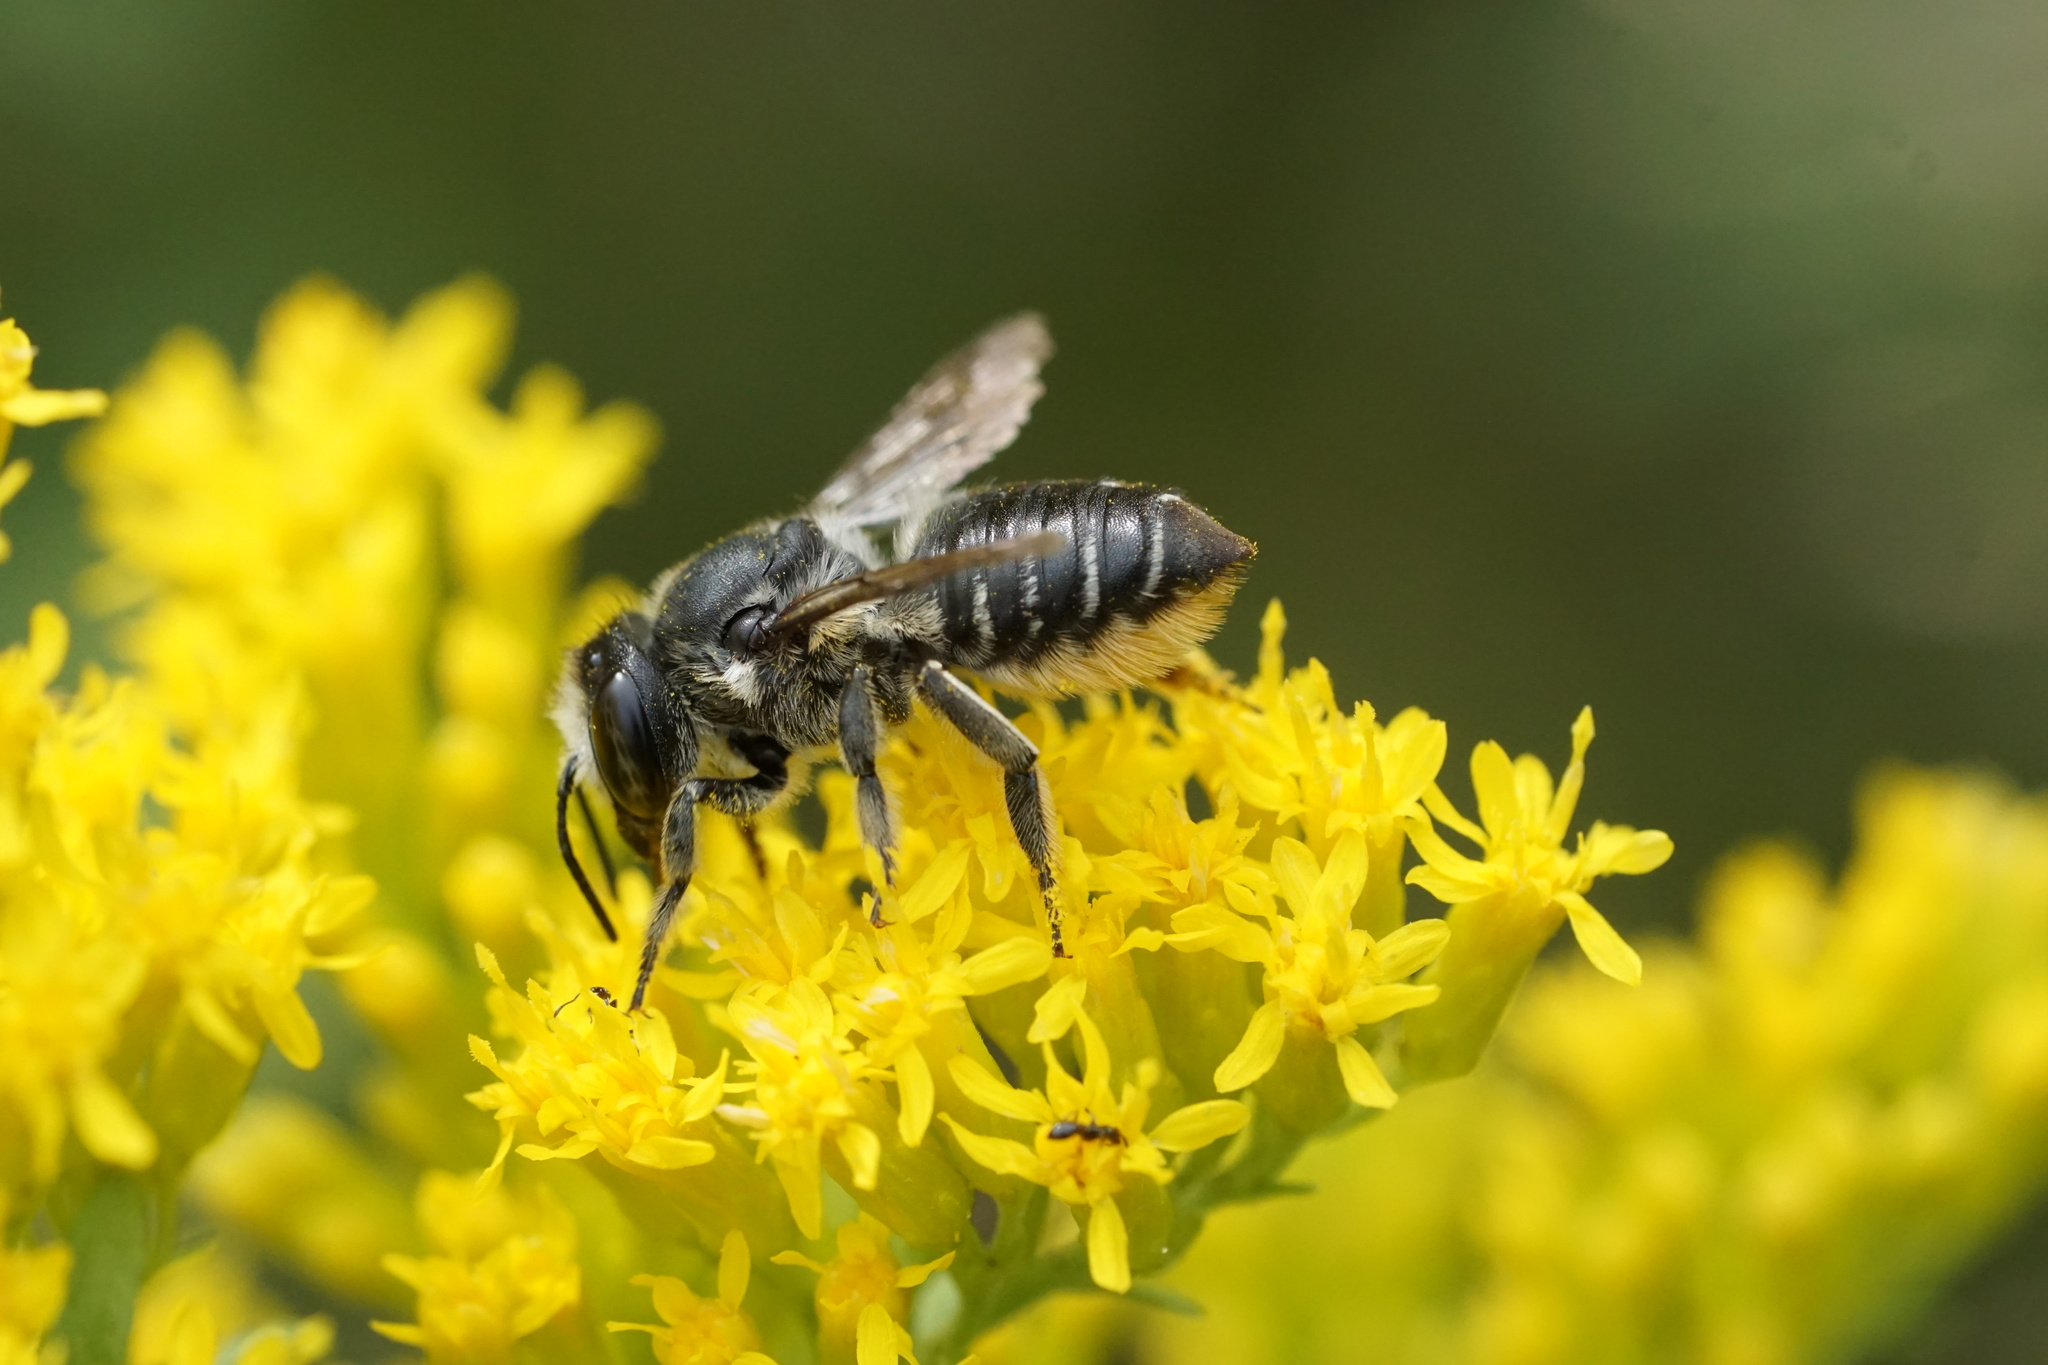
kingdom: Animalia
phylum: Arthropoda
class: Insecta
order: Hymenoptera
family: Megachilidae
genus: Megachile
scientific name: Megachile mendica
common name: Flat-tailed leafcutter
